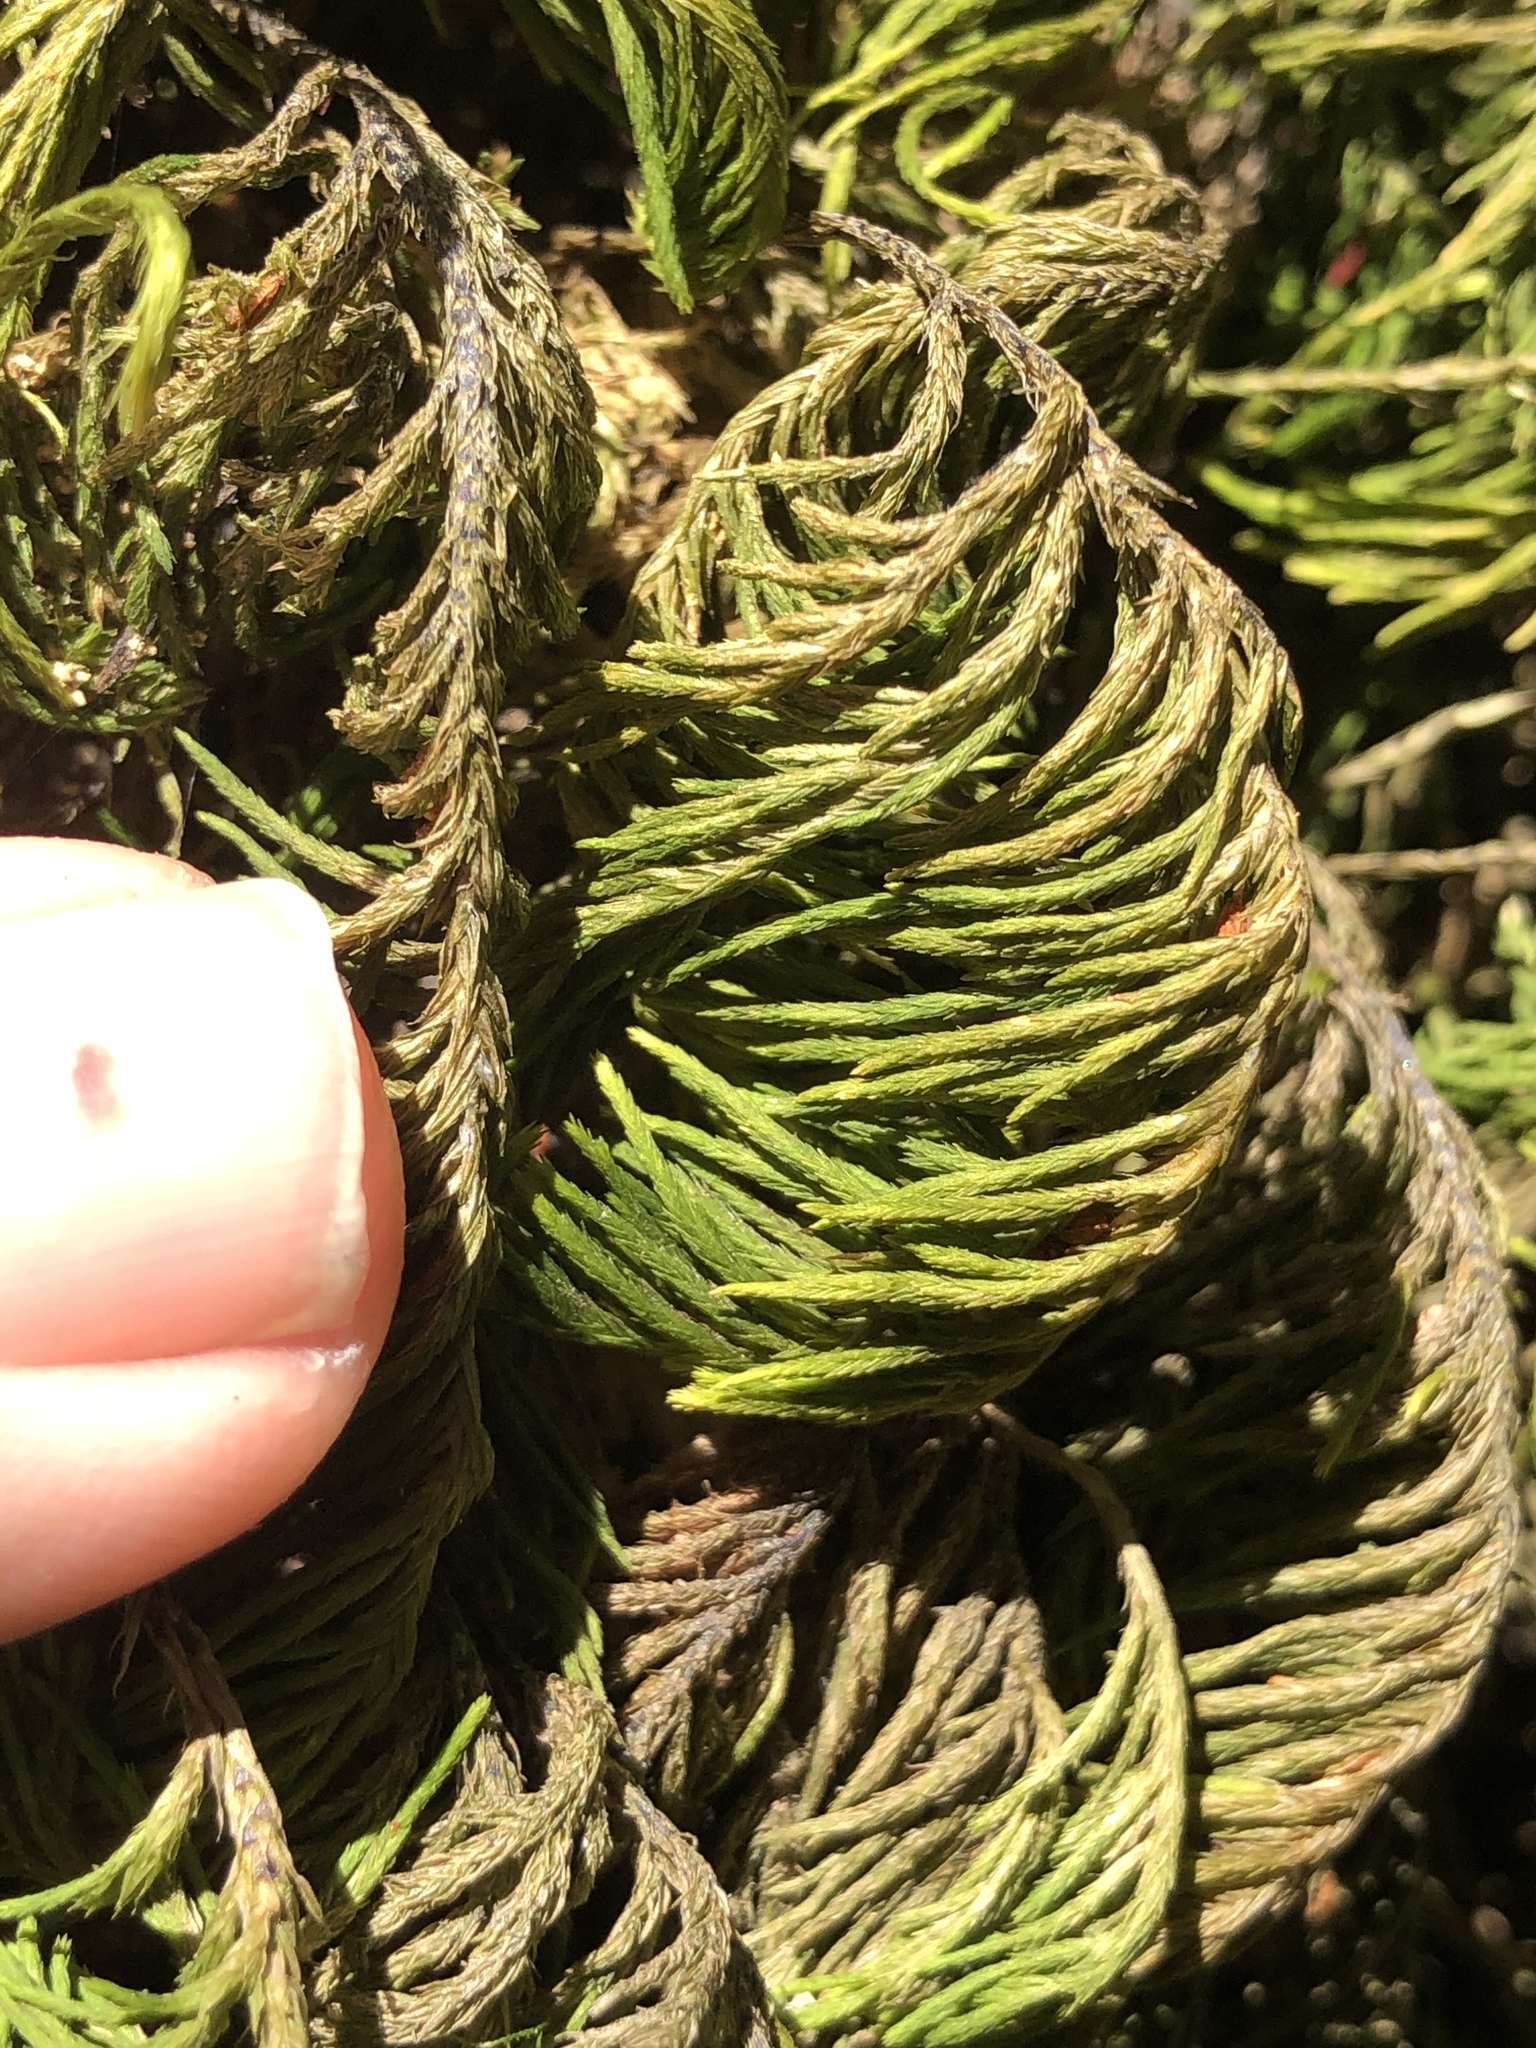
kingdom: Plantae
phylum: Bryophyta
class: Bryopsida
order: Hypnales
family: Cryphaeaceae
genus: Dendroalsia
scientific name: Dendroalsia abietina
